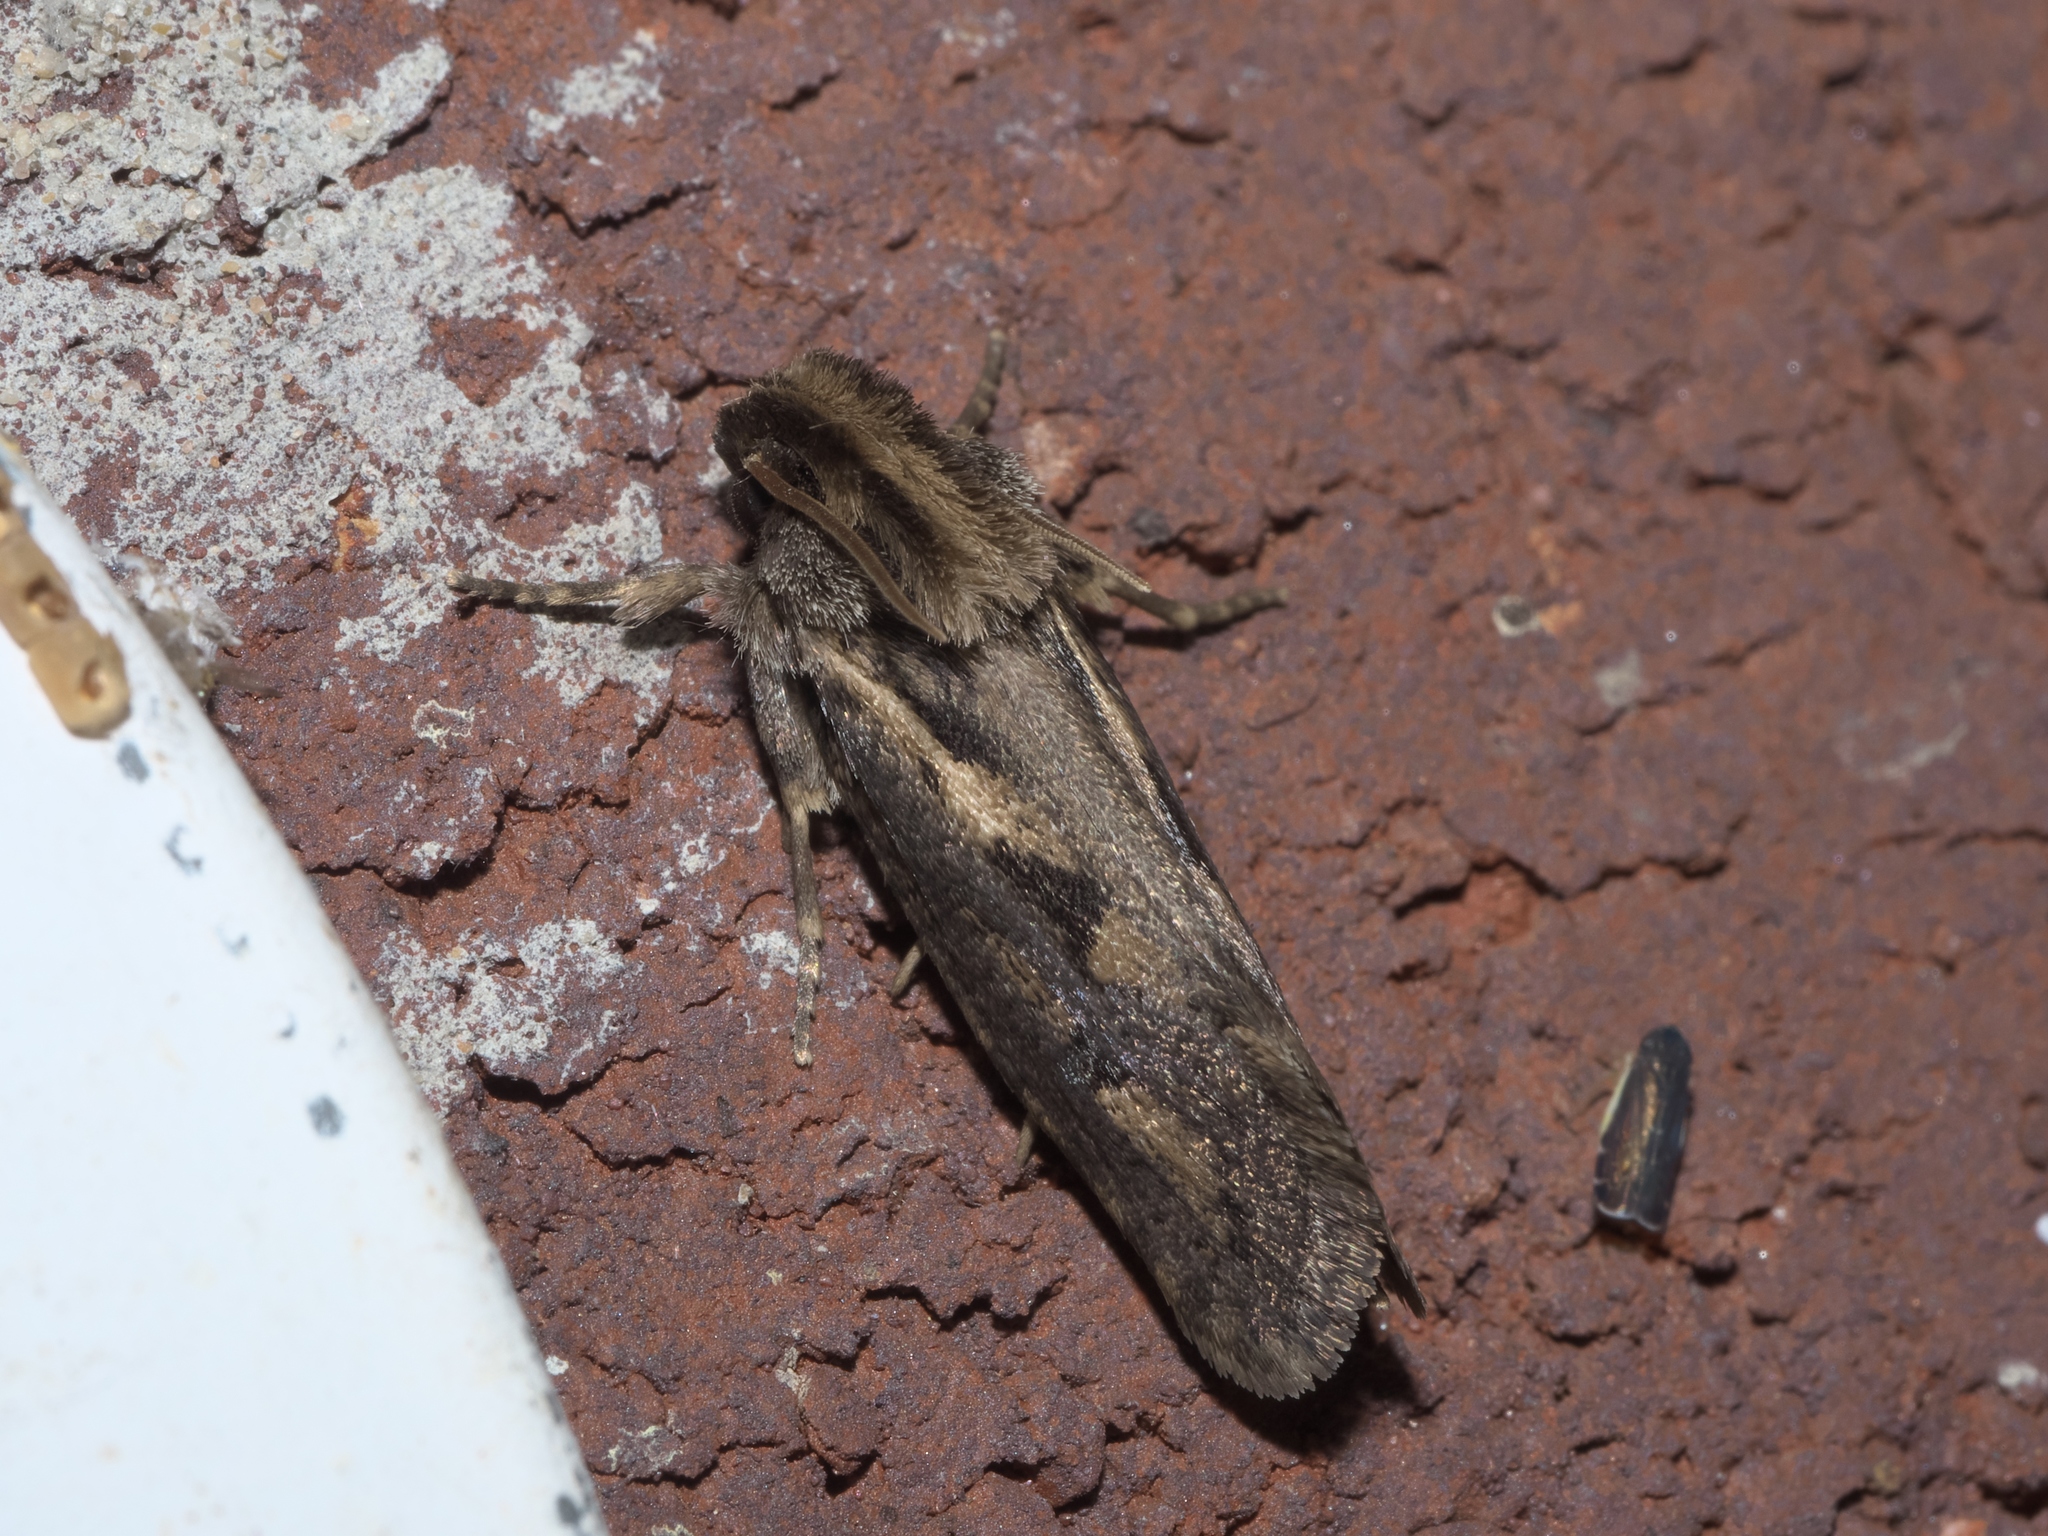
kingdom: Animalia
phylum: Arthropoda
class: Insecta
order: Lepidoptera
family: Tineidae
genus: Acrolophus
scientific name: Acrolophus popeanella
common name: Clemens' grass tubeworm moth
